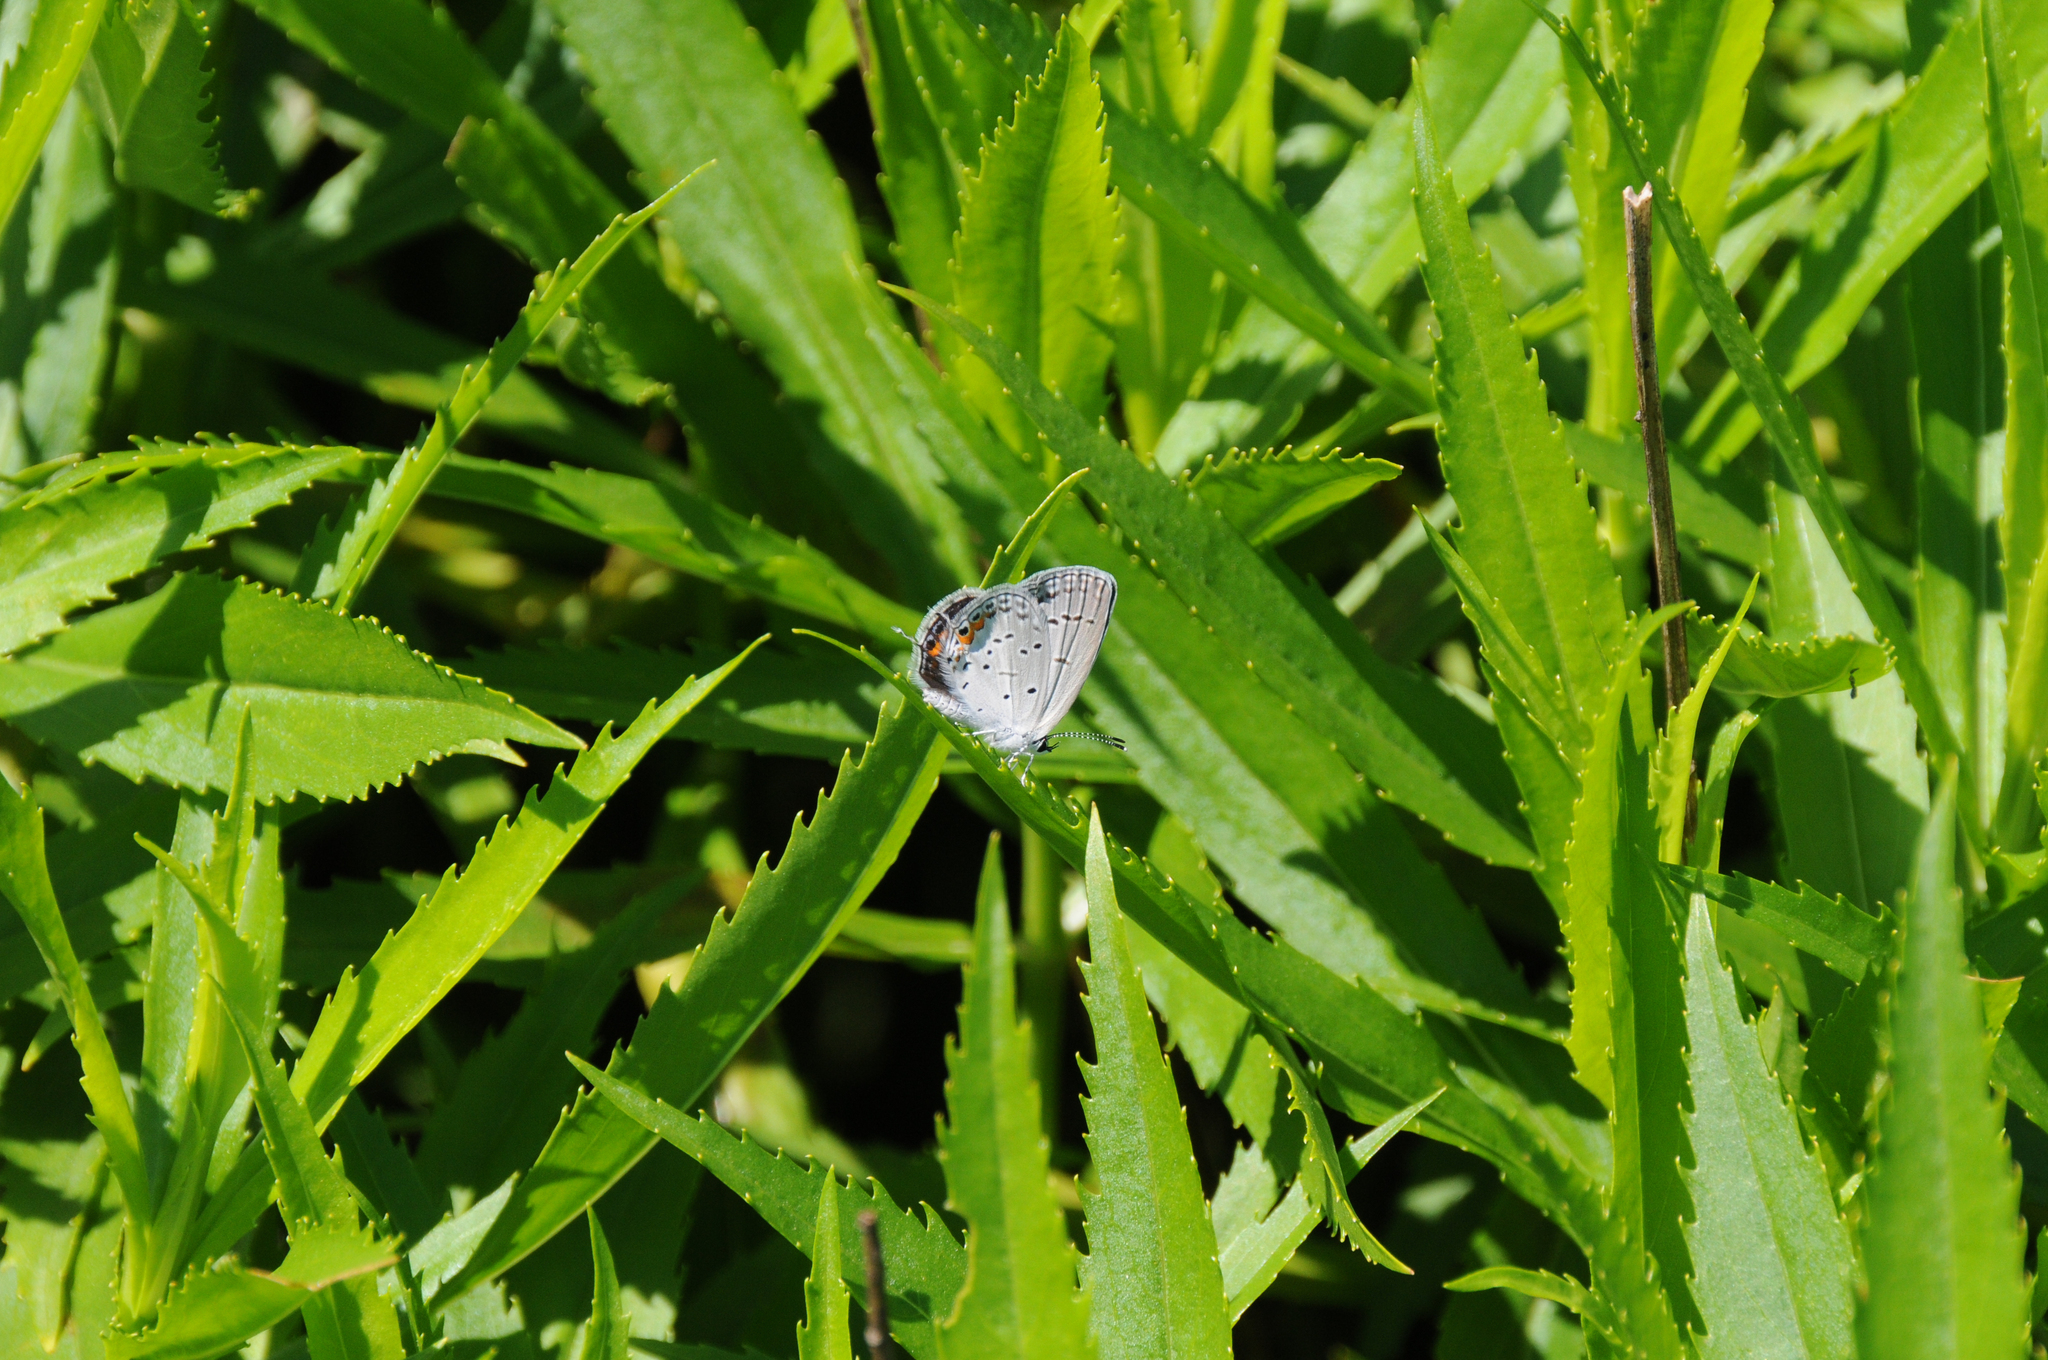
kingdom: Animalia
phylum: Arthropoda
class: Insecta
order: Lepidoptera
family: Lycaenidae
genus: Elkalyce
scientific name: Elkalyce comyntas
